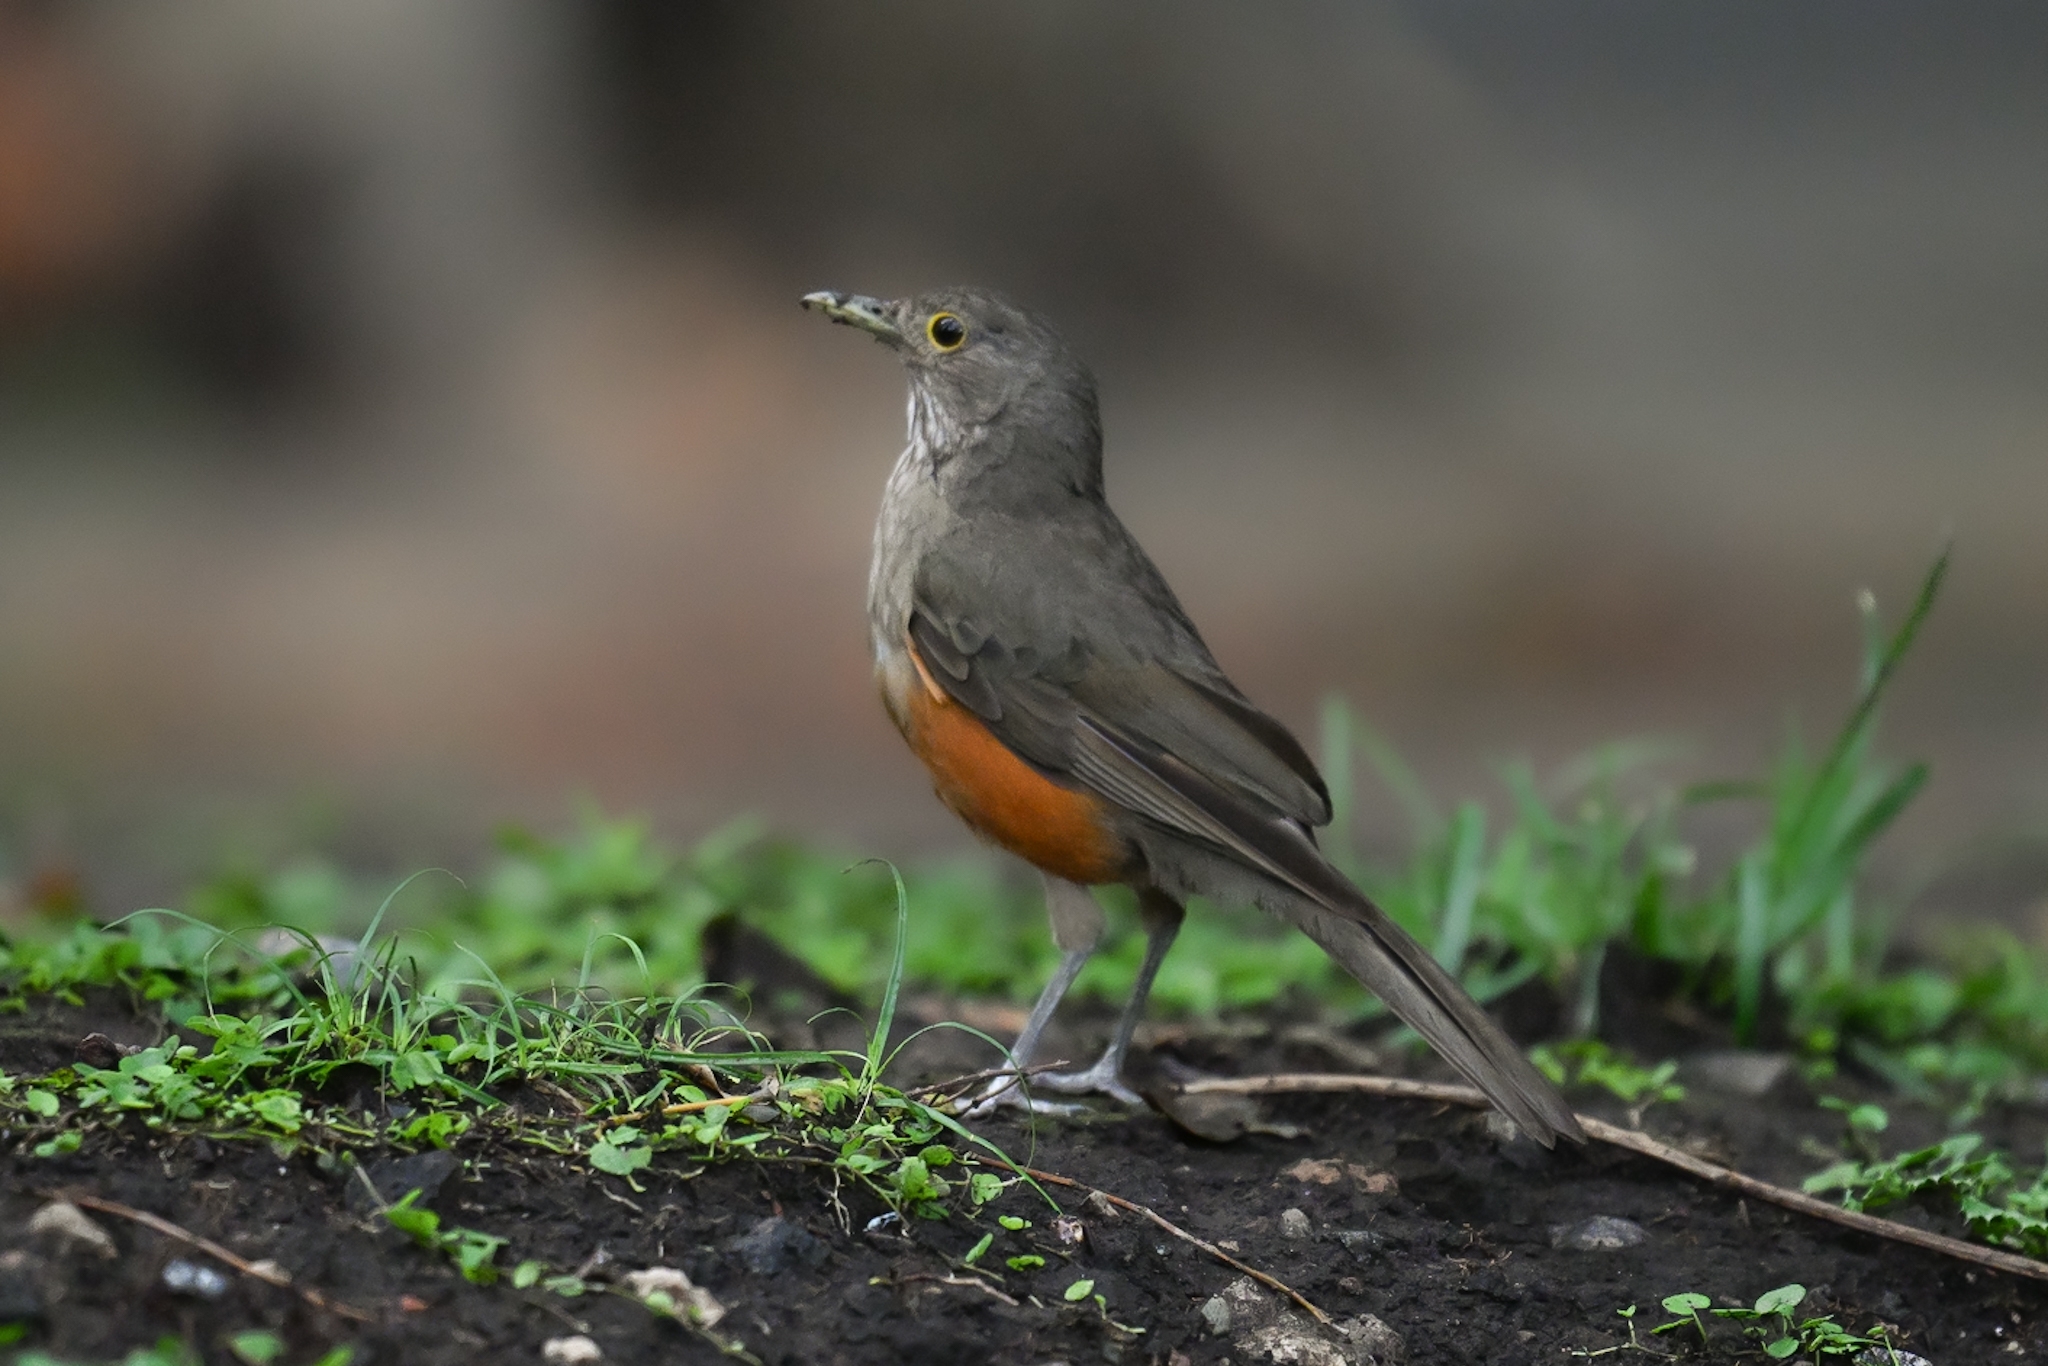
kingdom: Animalia
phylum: Chordata
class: Aves
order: Passeriformes
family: Turdidae
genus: Turdus
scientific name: Turdus rufiventris
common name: Rufous-bellied thrush
